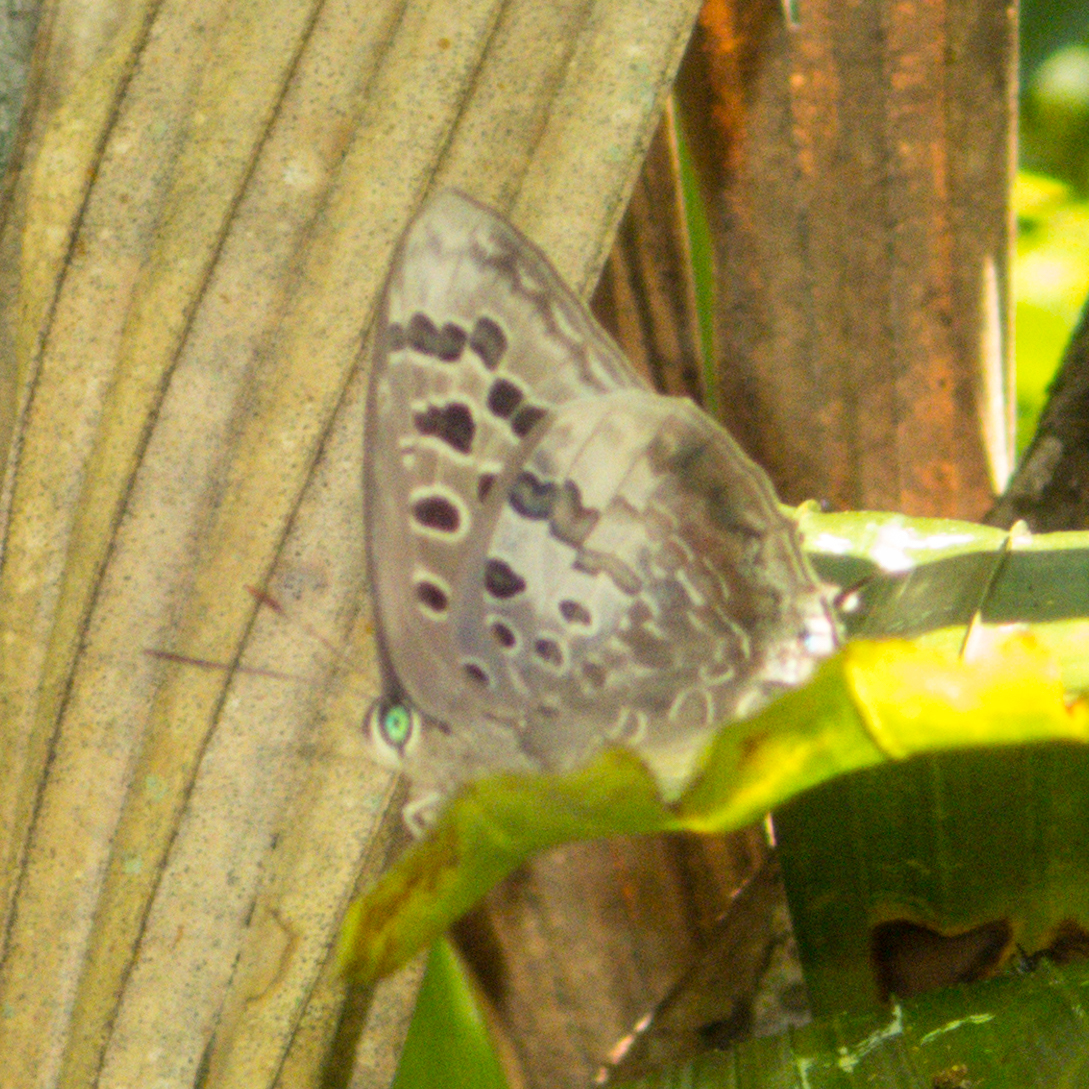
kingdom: Animalia
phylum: Arthropoda
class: Insecta
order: Lepidoptera
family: Lycaenidae
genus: Arhopala
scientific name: Arhopala hellenore
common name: Doherty's green oakblue
